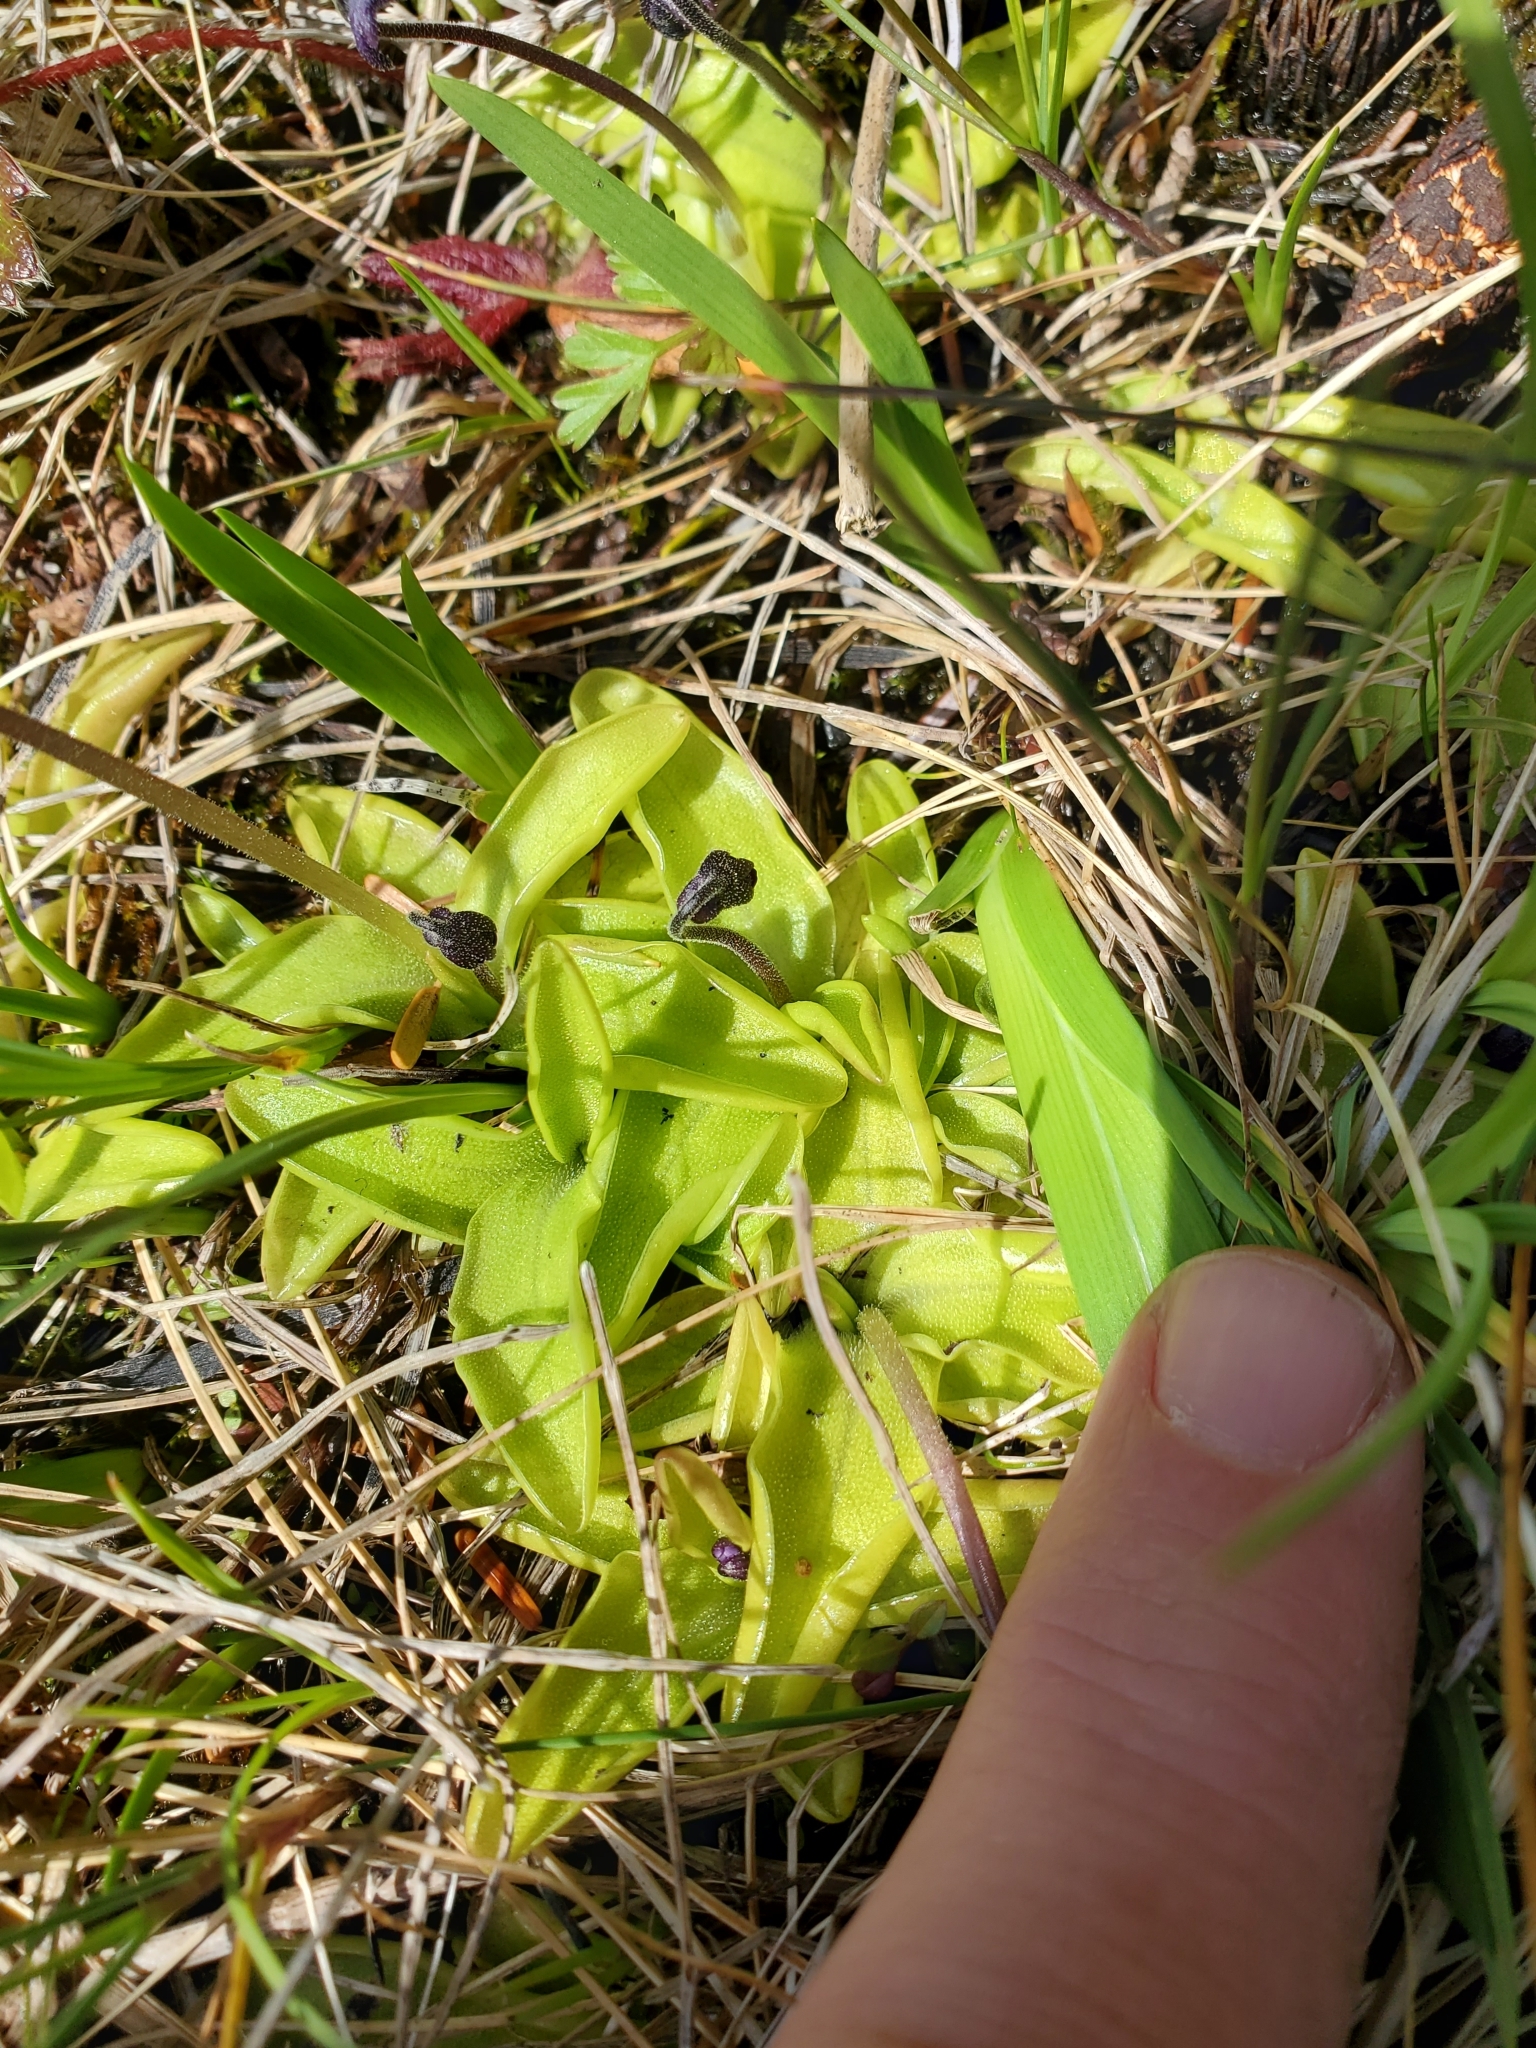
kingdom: Plantae
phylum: Tracheophyta
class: Magnoliopsida
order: Lamiales
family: Lentibulariaceae
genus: Pinguicula
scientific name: Pinguicula vulgaris
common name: Common butterwort
